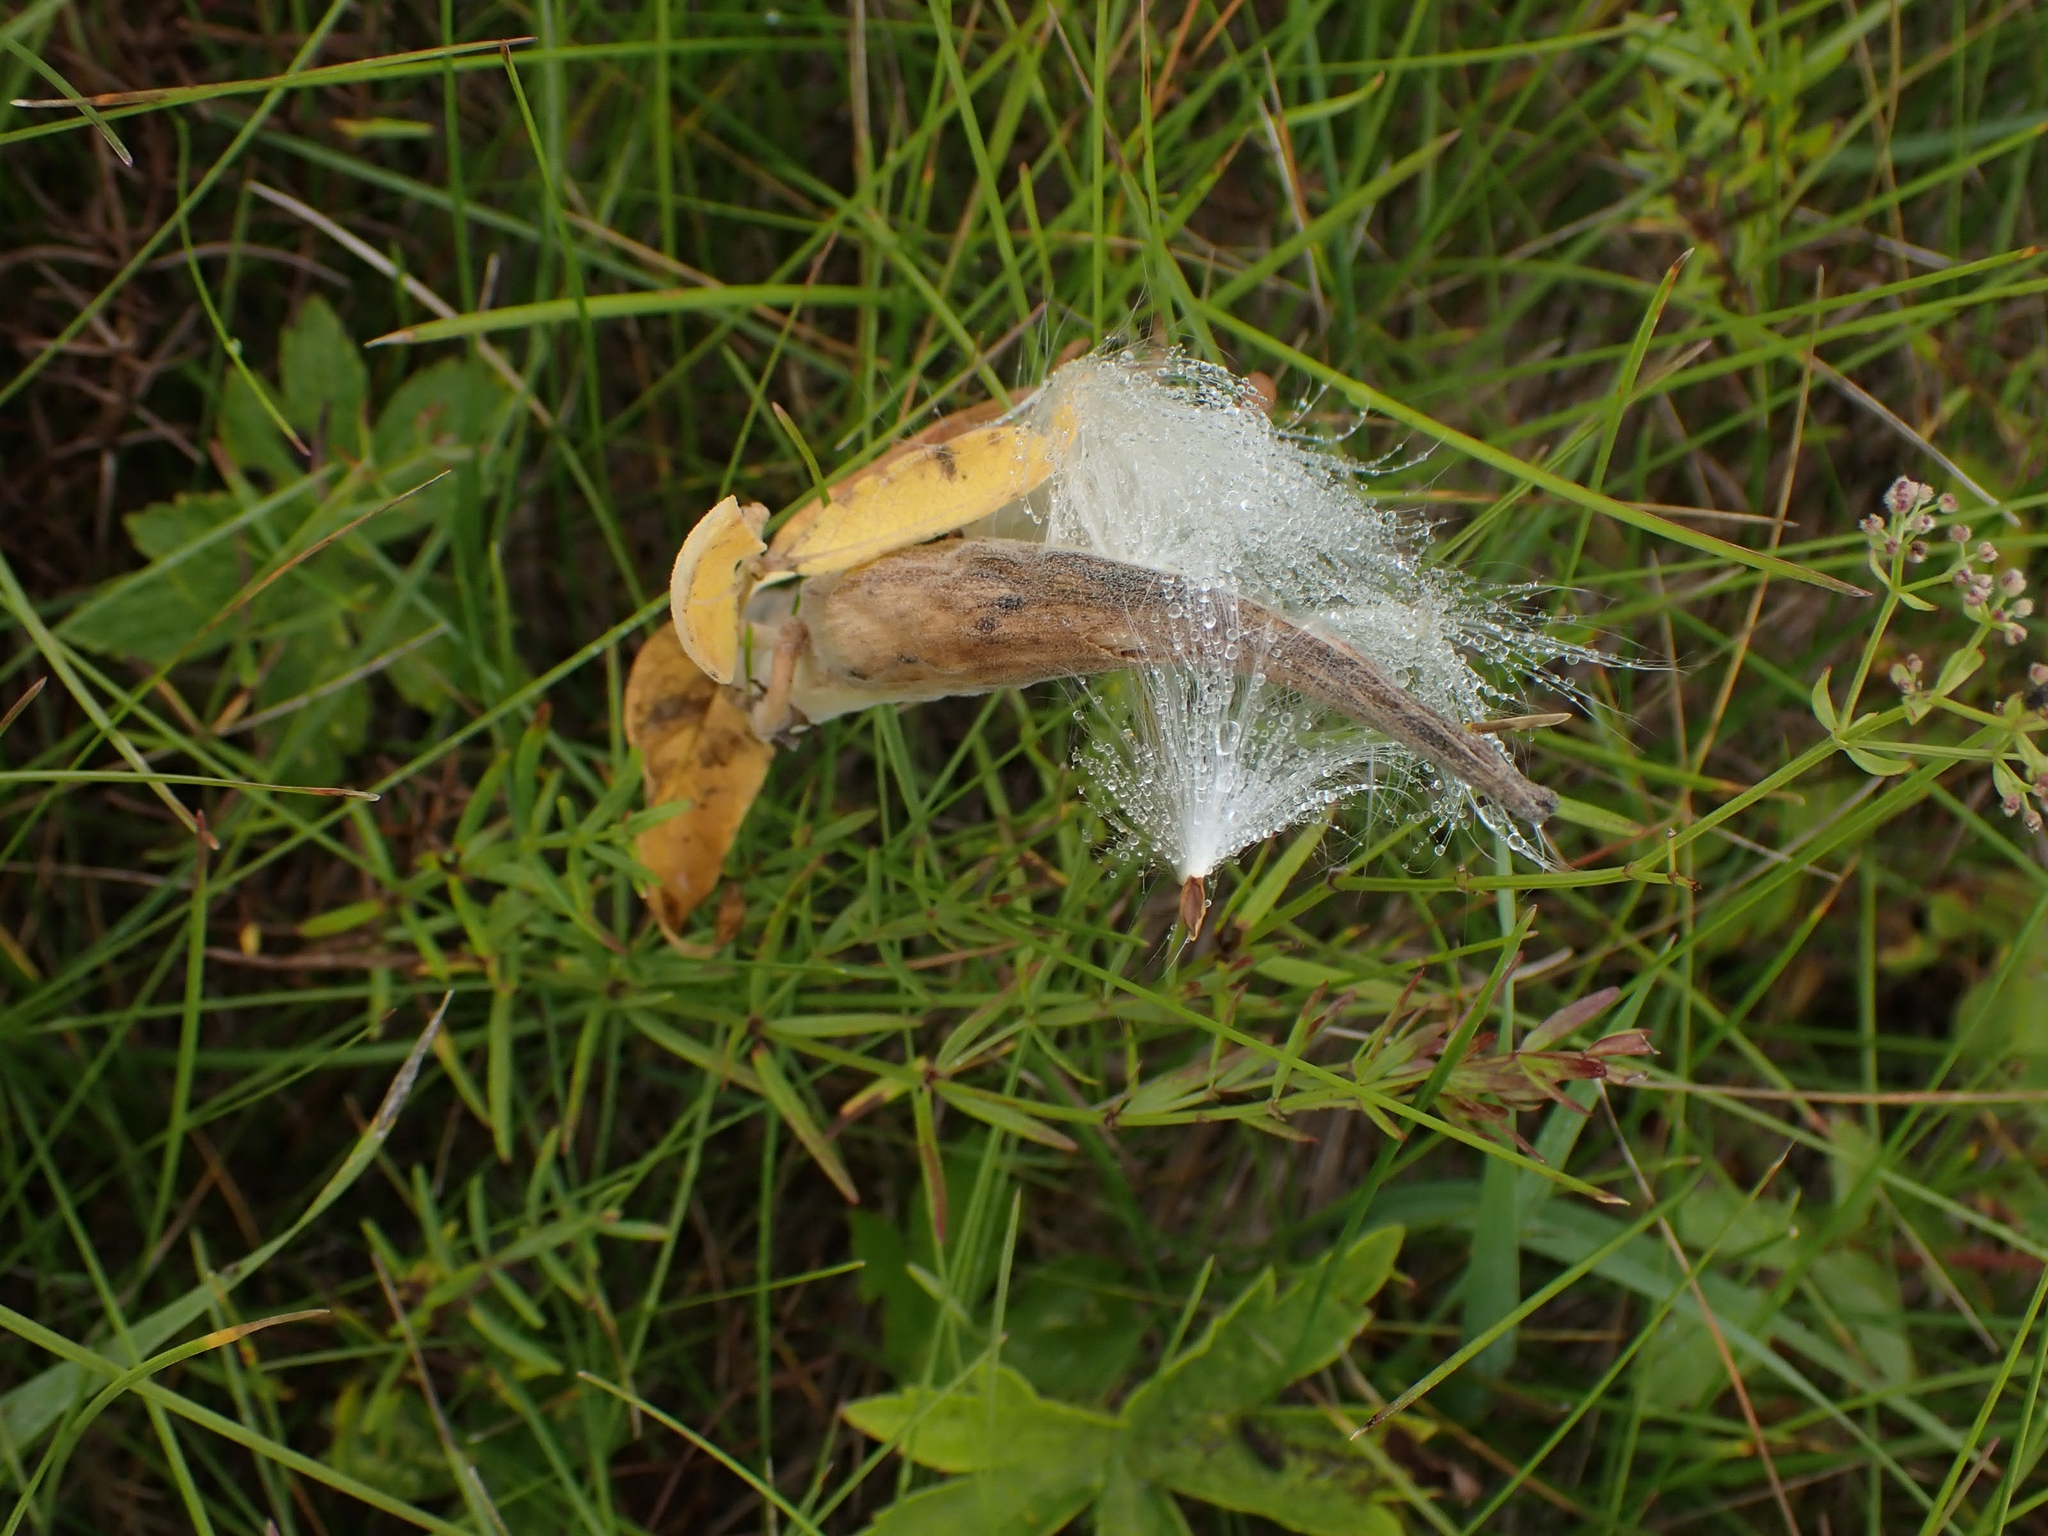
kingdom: Plantae
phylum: Tracheophyta
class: Magnoliopsida
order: Gentianales
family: Apocynaceae
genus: Asclepias
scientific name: Asclepias ovalifolia
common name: Dwarf milkweed
